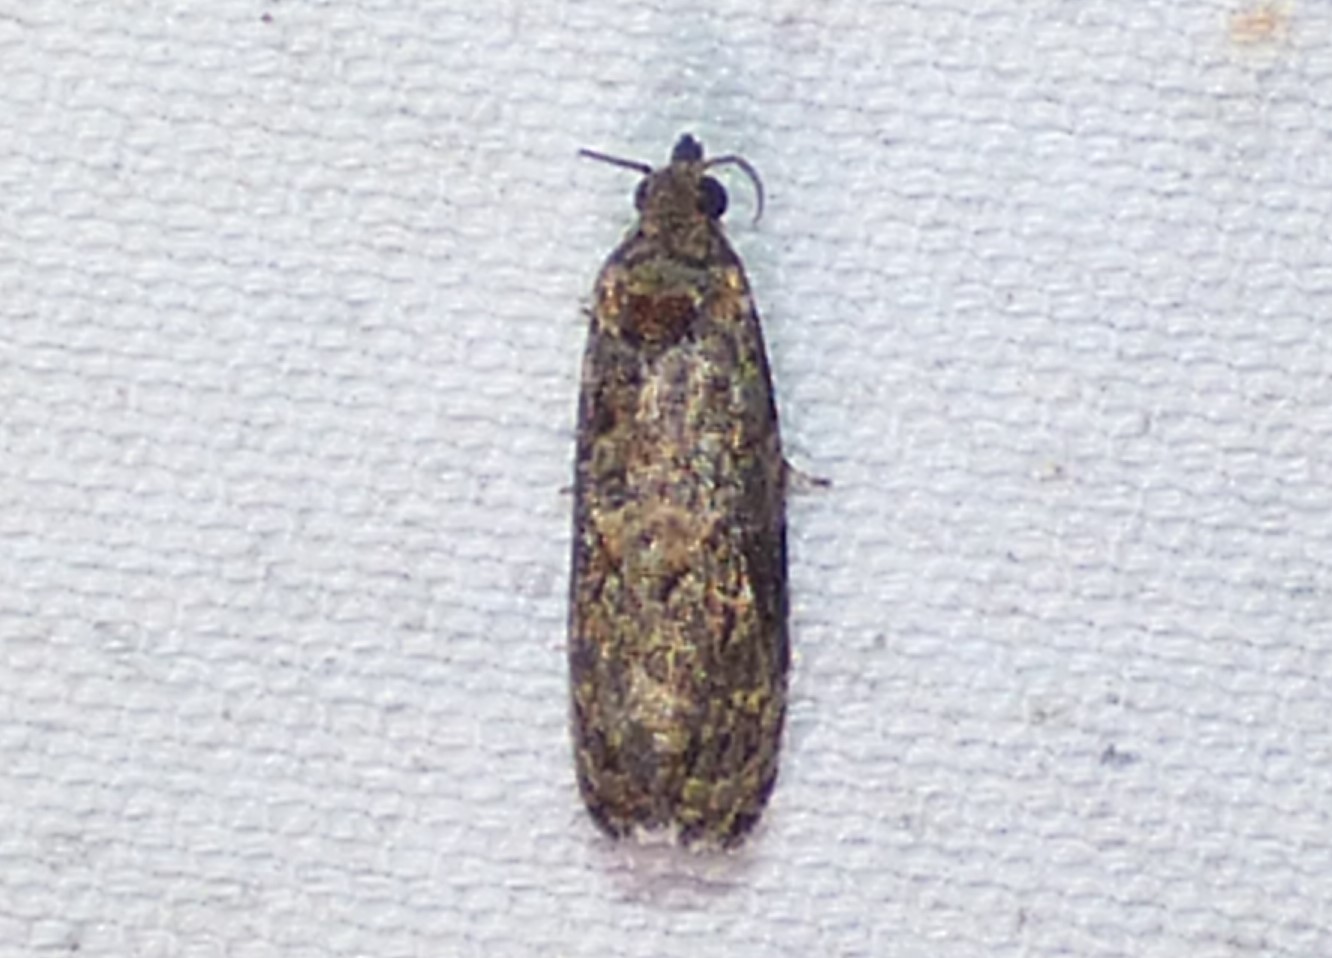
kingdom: Animalia
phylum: Arthropoda
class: Insecta
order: Lepidoptera
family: Tortricidae
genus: Endothenia
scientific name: Endothenia hebesana
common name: Verbena bud moth
